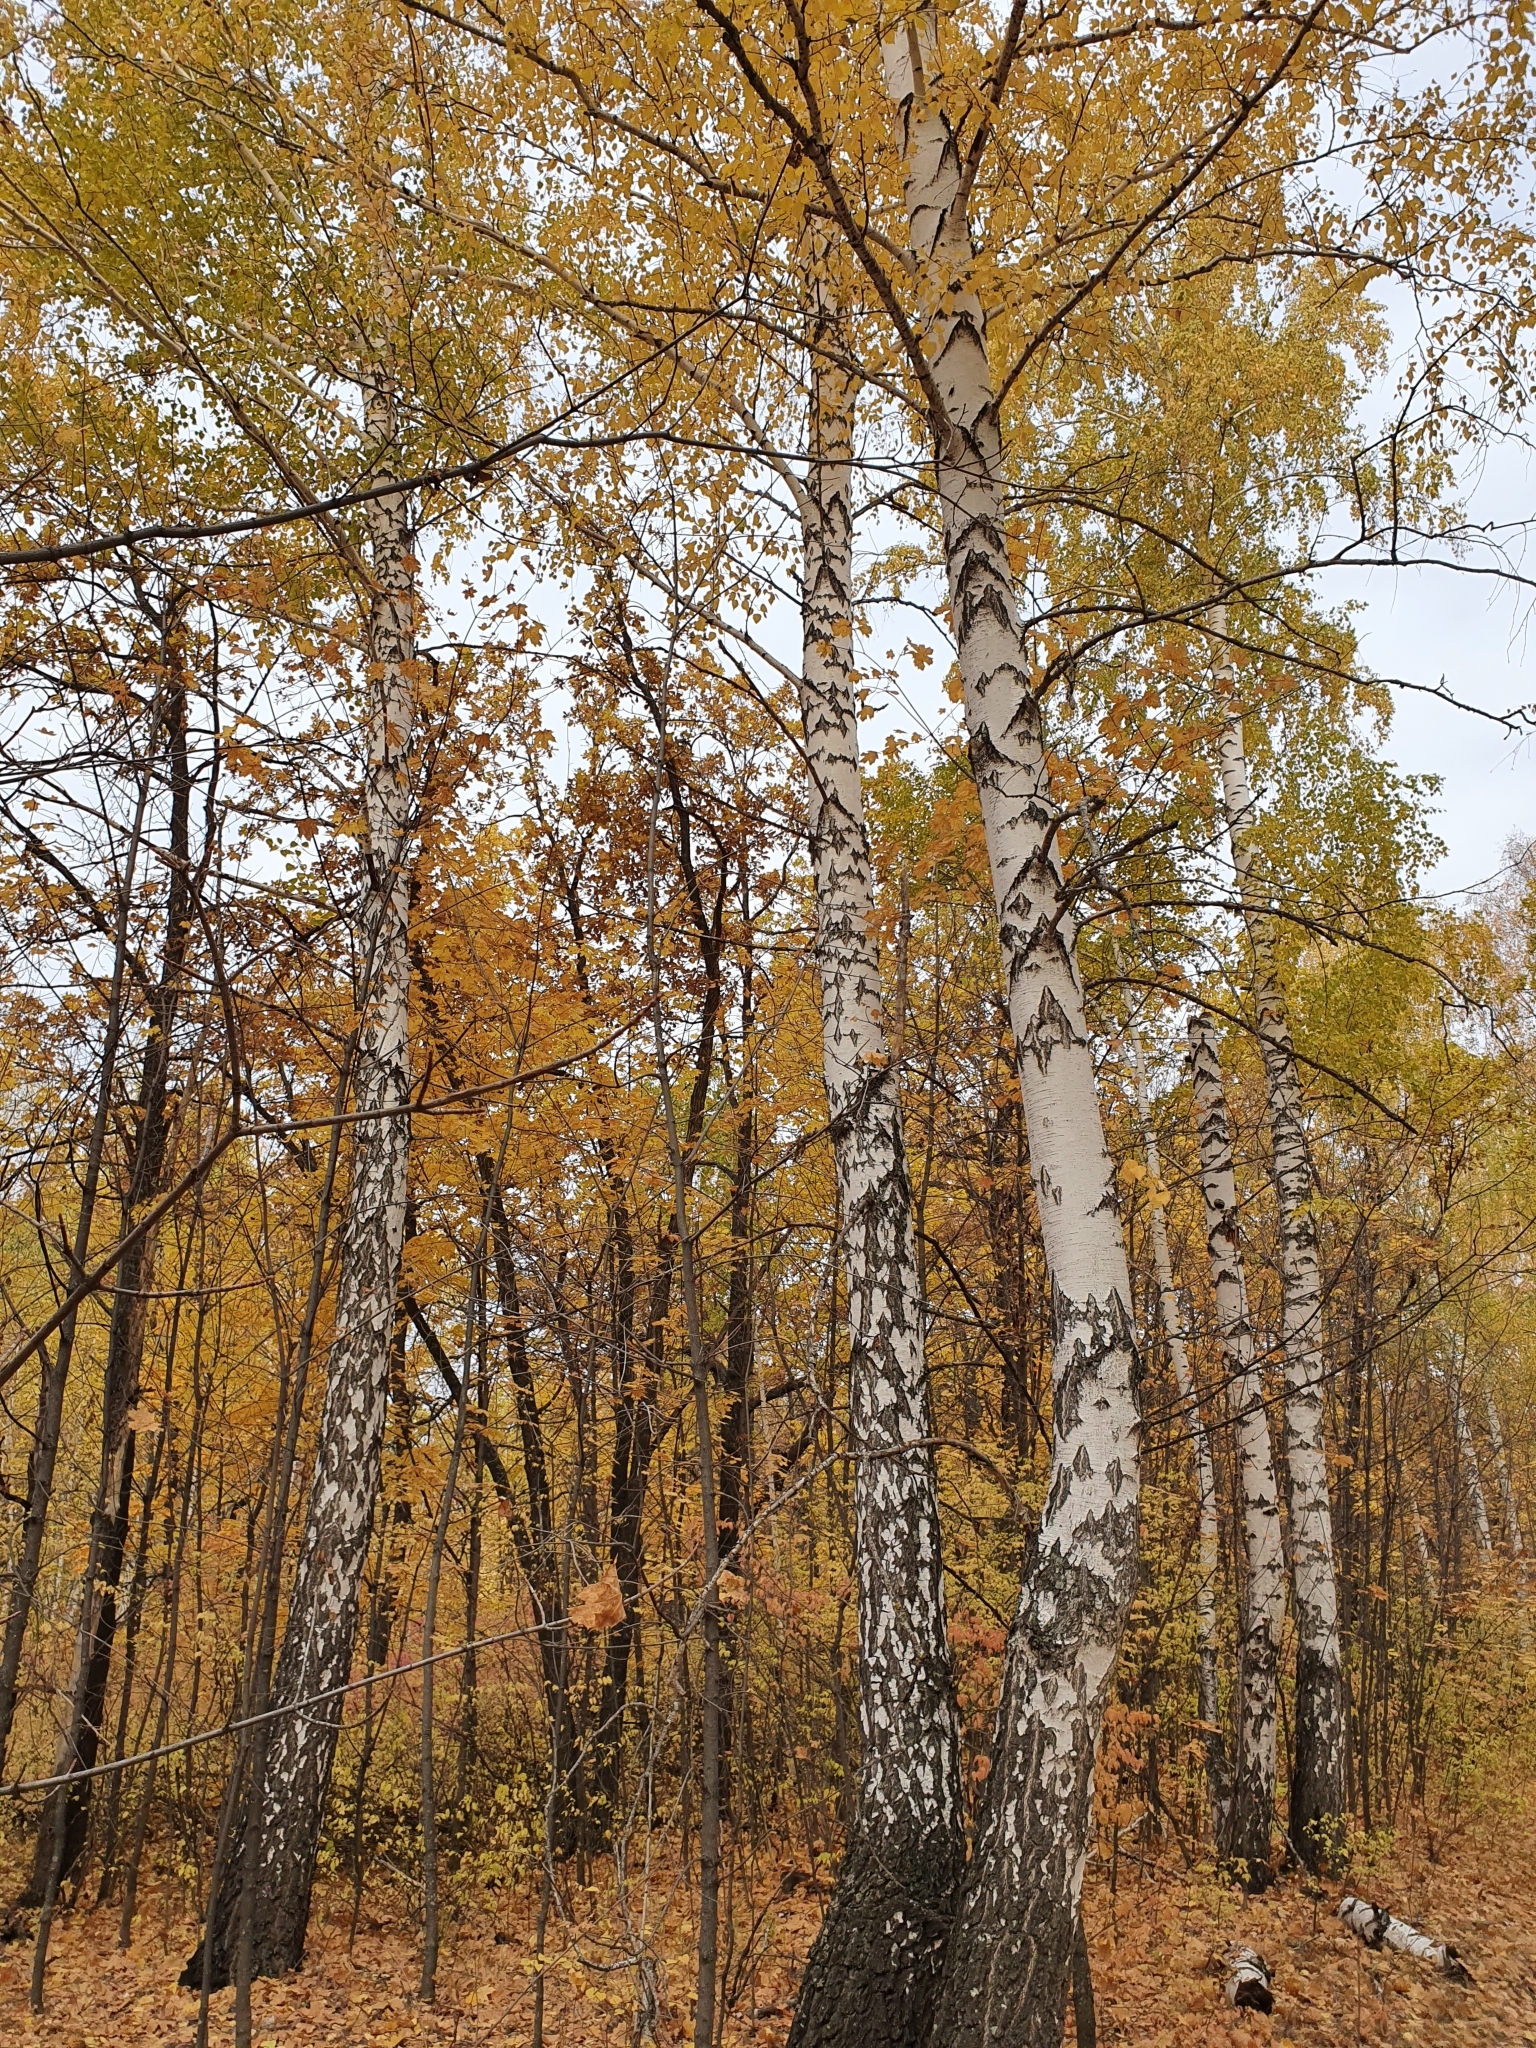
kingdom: Plantae
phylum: Tracheophyta
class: Magnoliopsida
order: Fagales
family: Betulaceae
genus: Betula
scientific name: Betula pendula
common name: Silver birch
